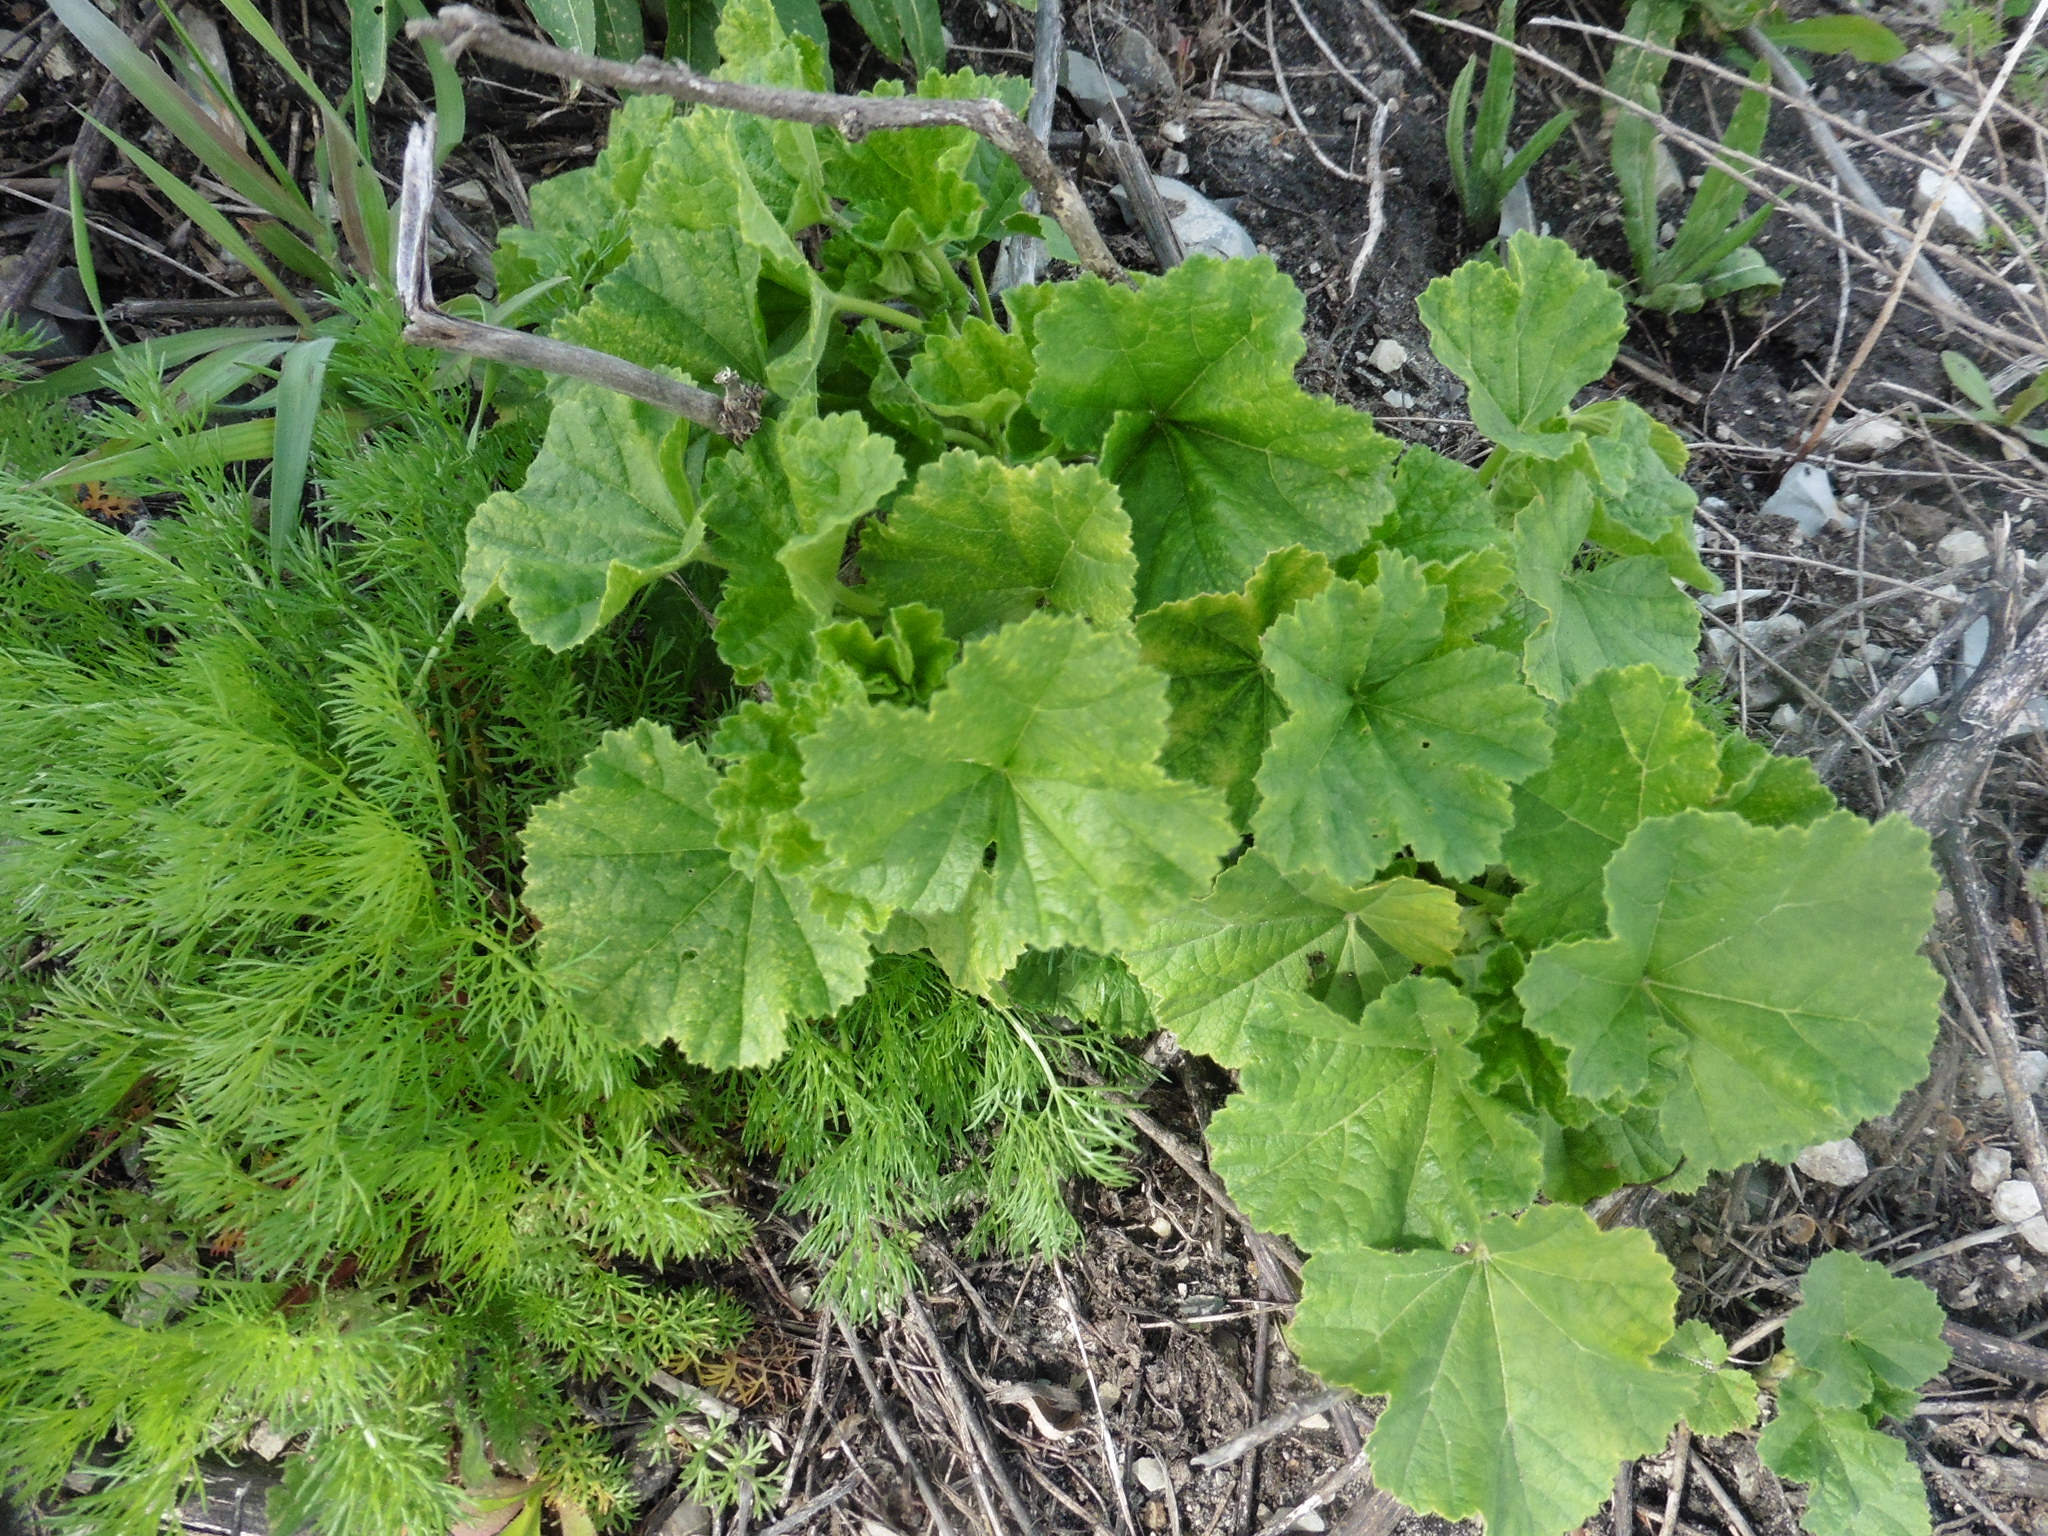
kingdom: Plantae
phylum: Tracheophyta
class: Magnoliopsida
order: Malvales
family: Malvaceae
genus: Alcea
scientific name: Alcea rosea
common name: Hollyhock
